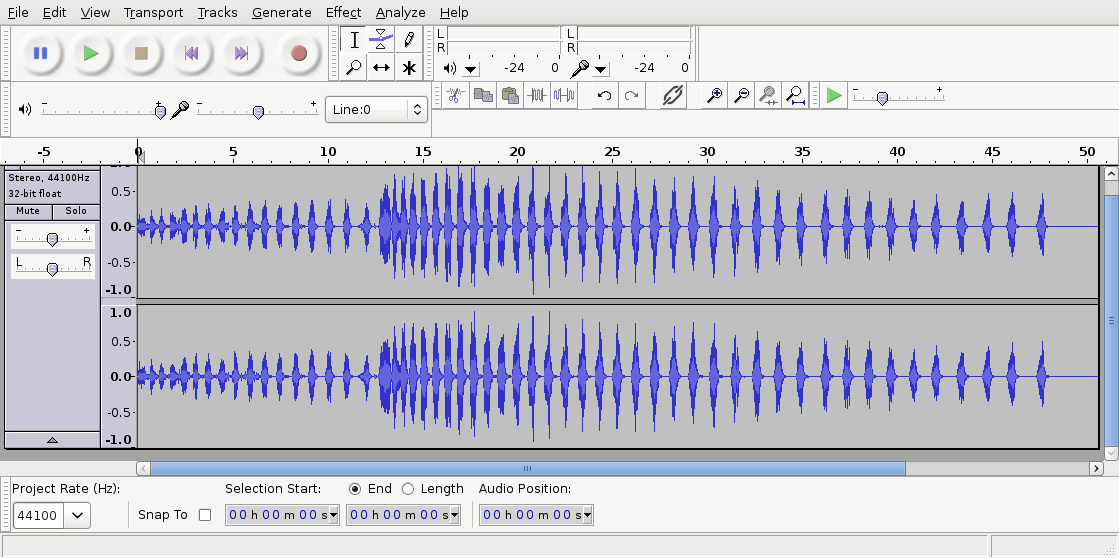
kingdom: Animalia
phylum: Chordata
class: Aves
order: Apterygiformes
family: Apterygidae
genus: Apteryx
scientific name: Apteryx owenii
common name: Little spotted kiwi
